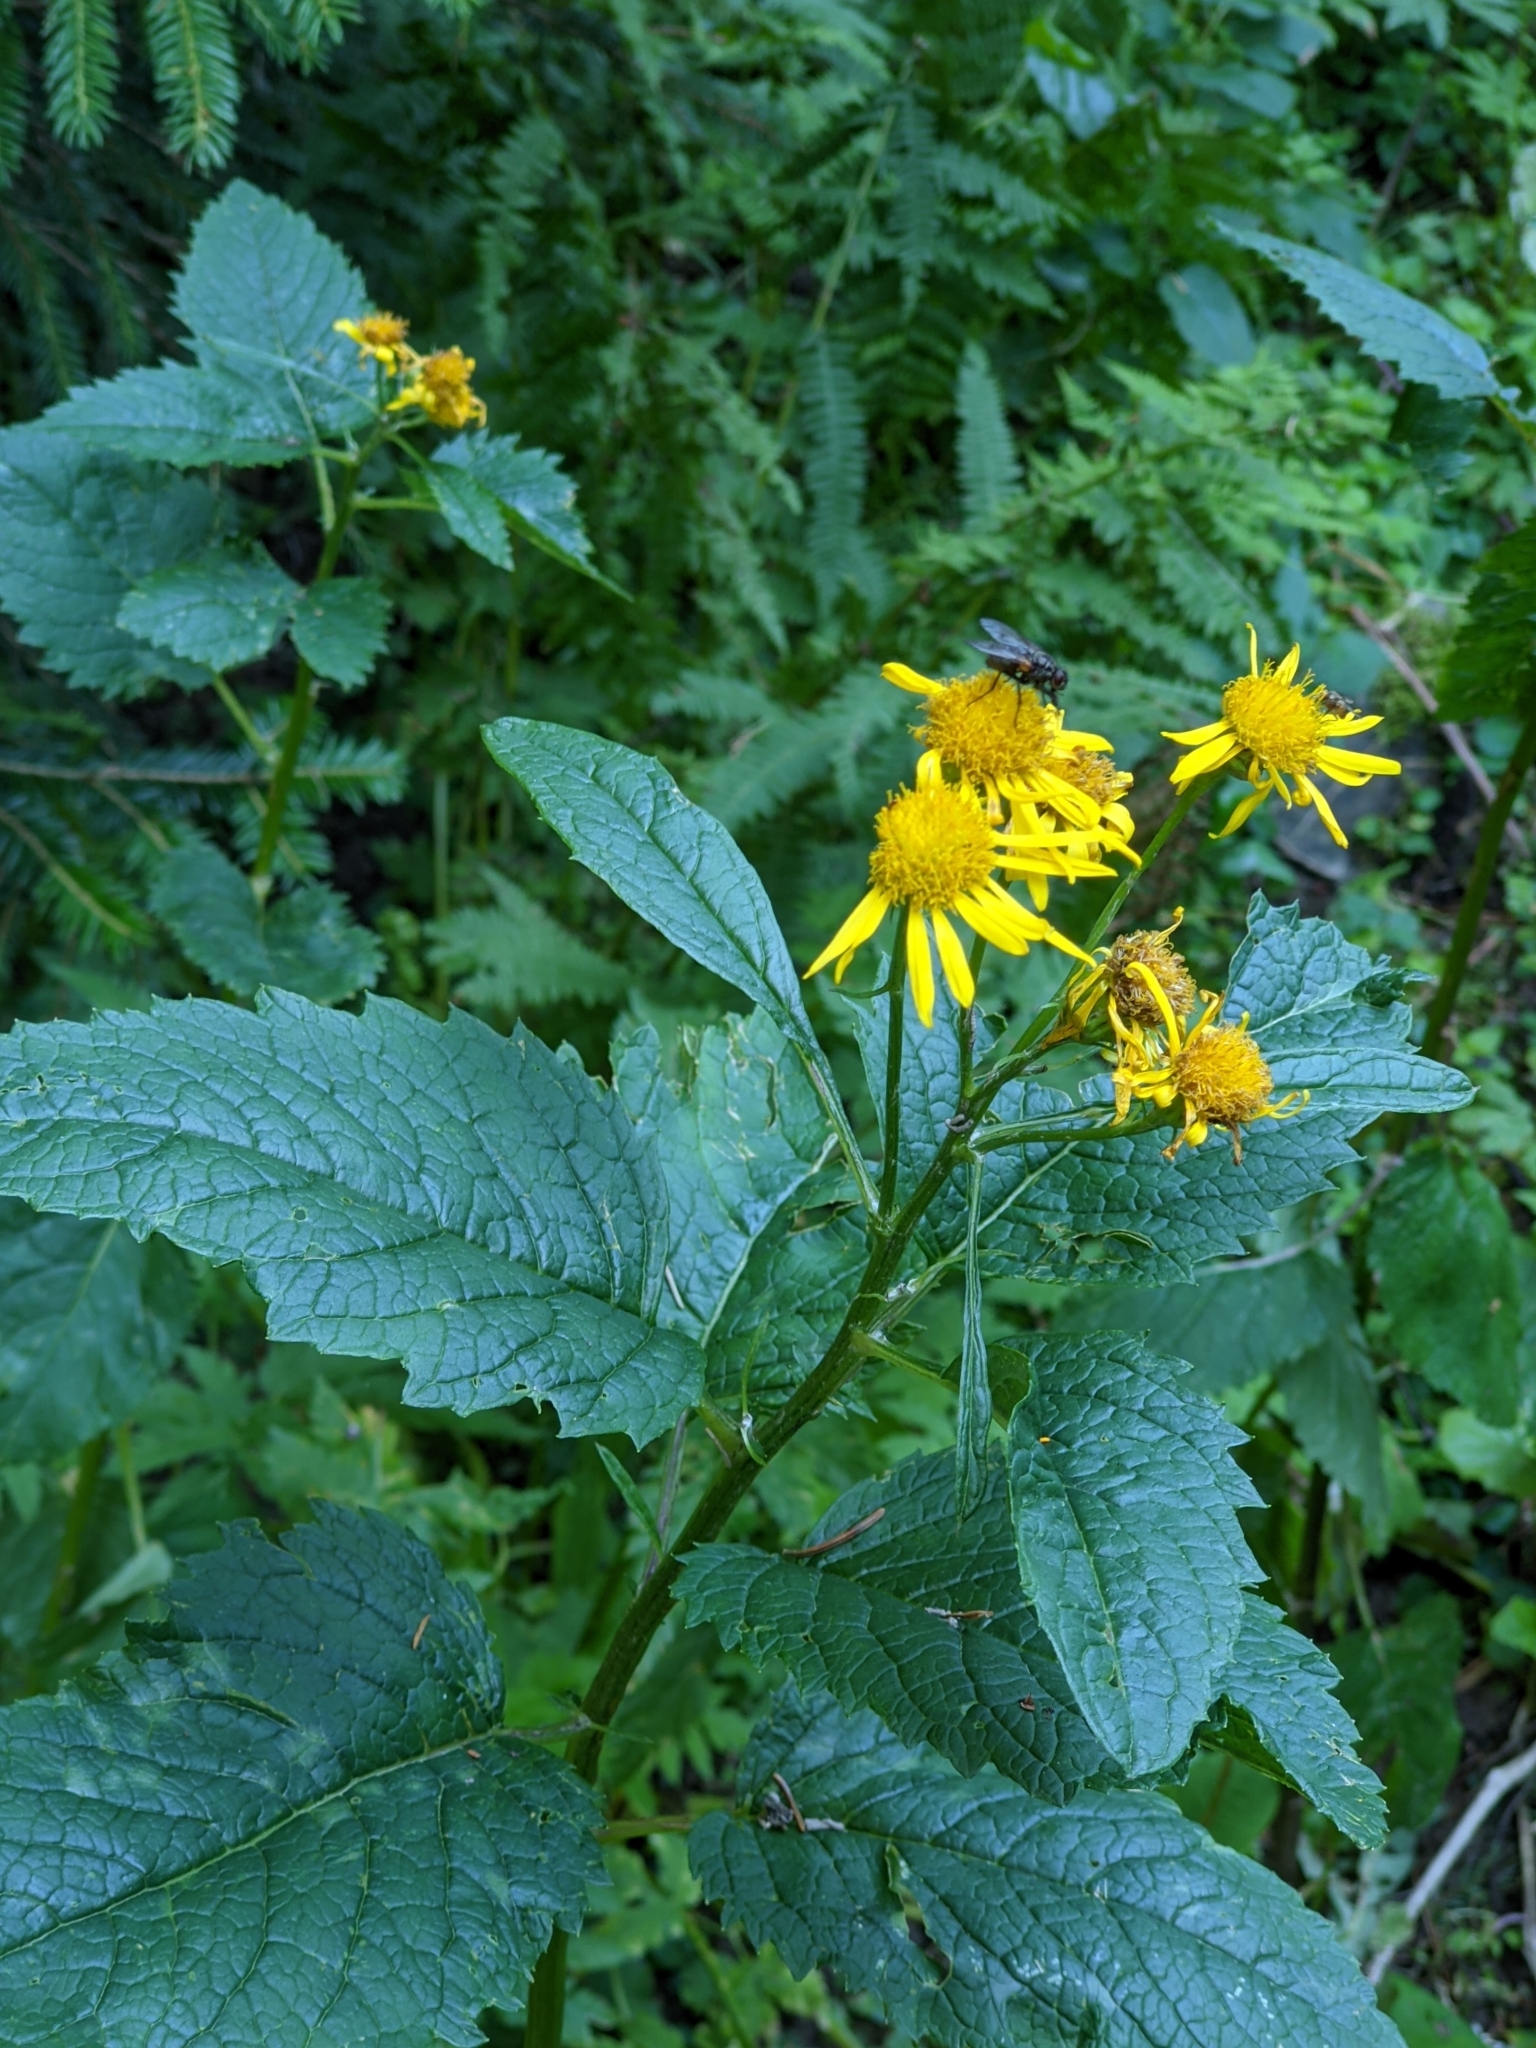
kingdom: Plantae
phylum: Tracheophyta
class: Magnoliopsida
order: Asterales
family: Asteraceae
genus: Jacobaea
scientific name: Jacobaea alpina
